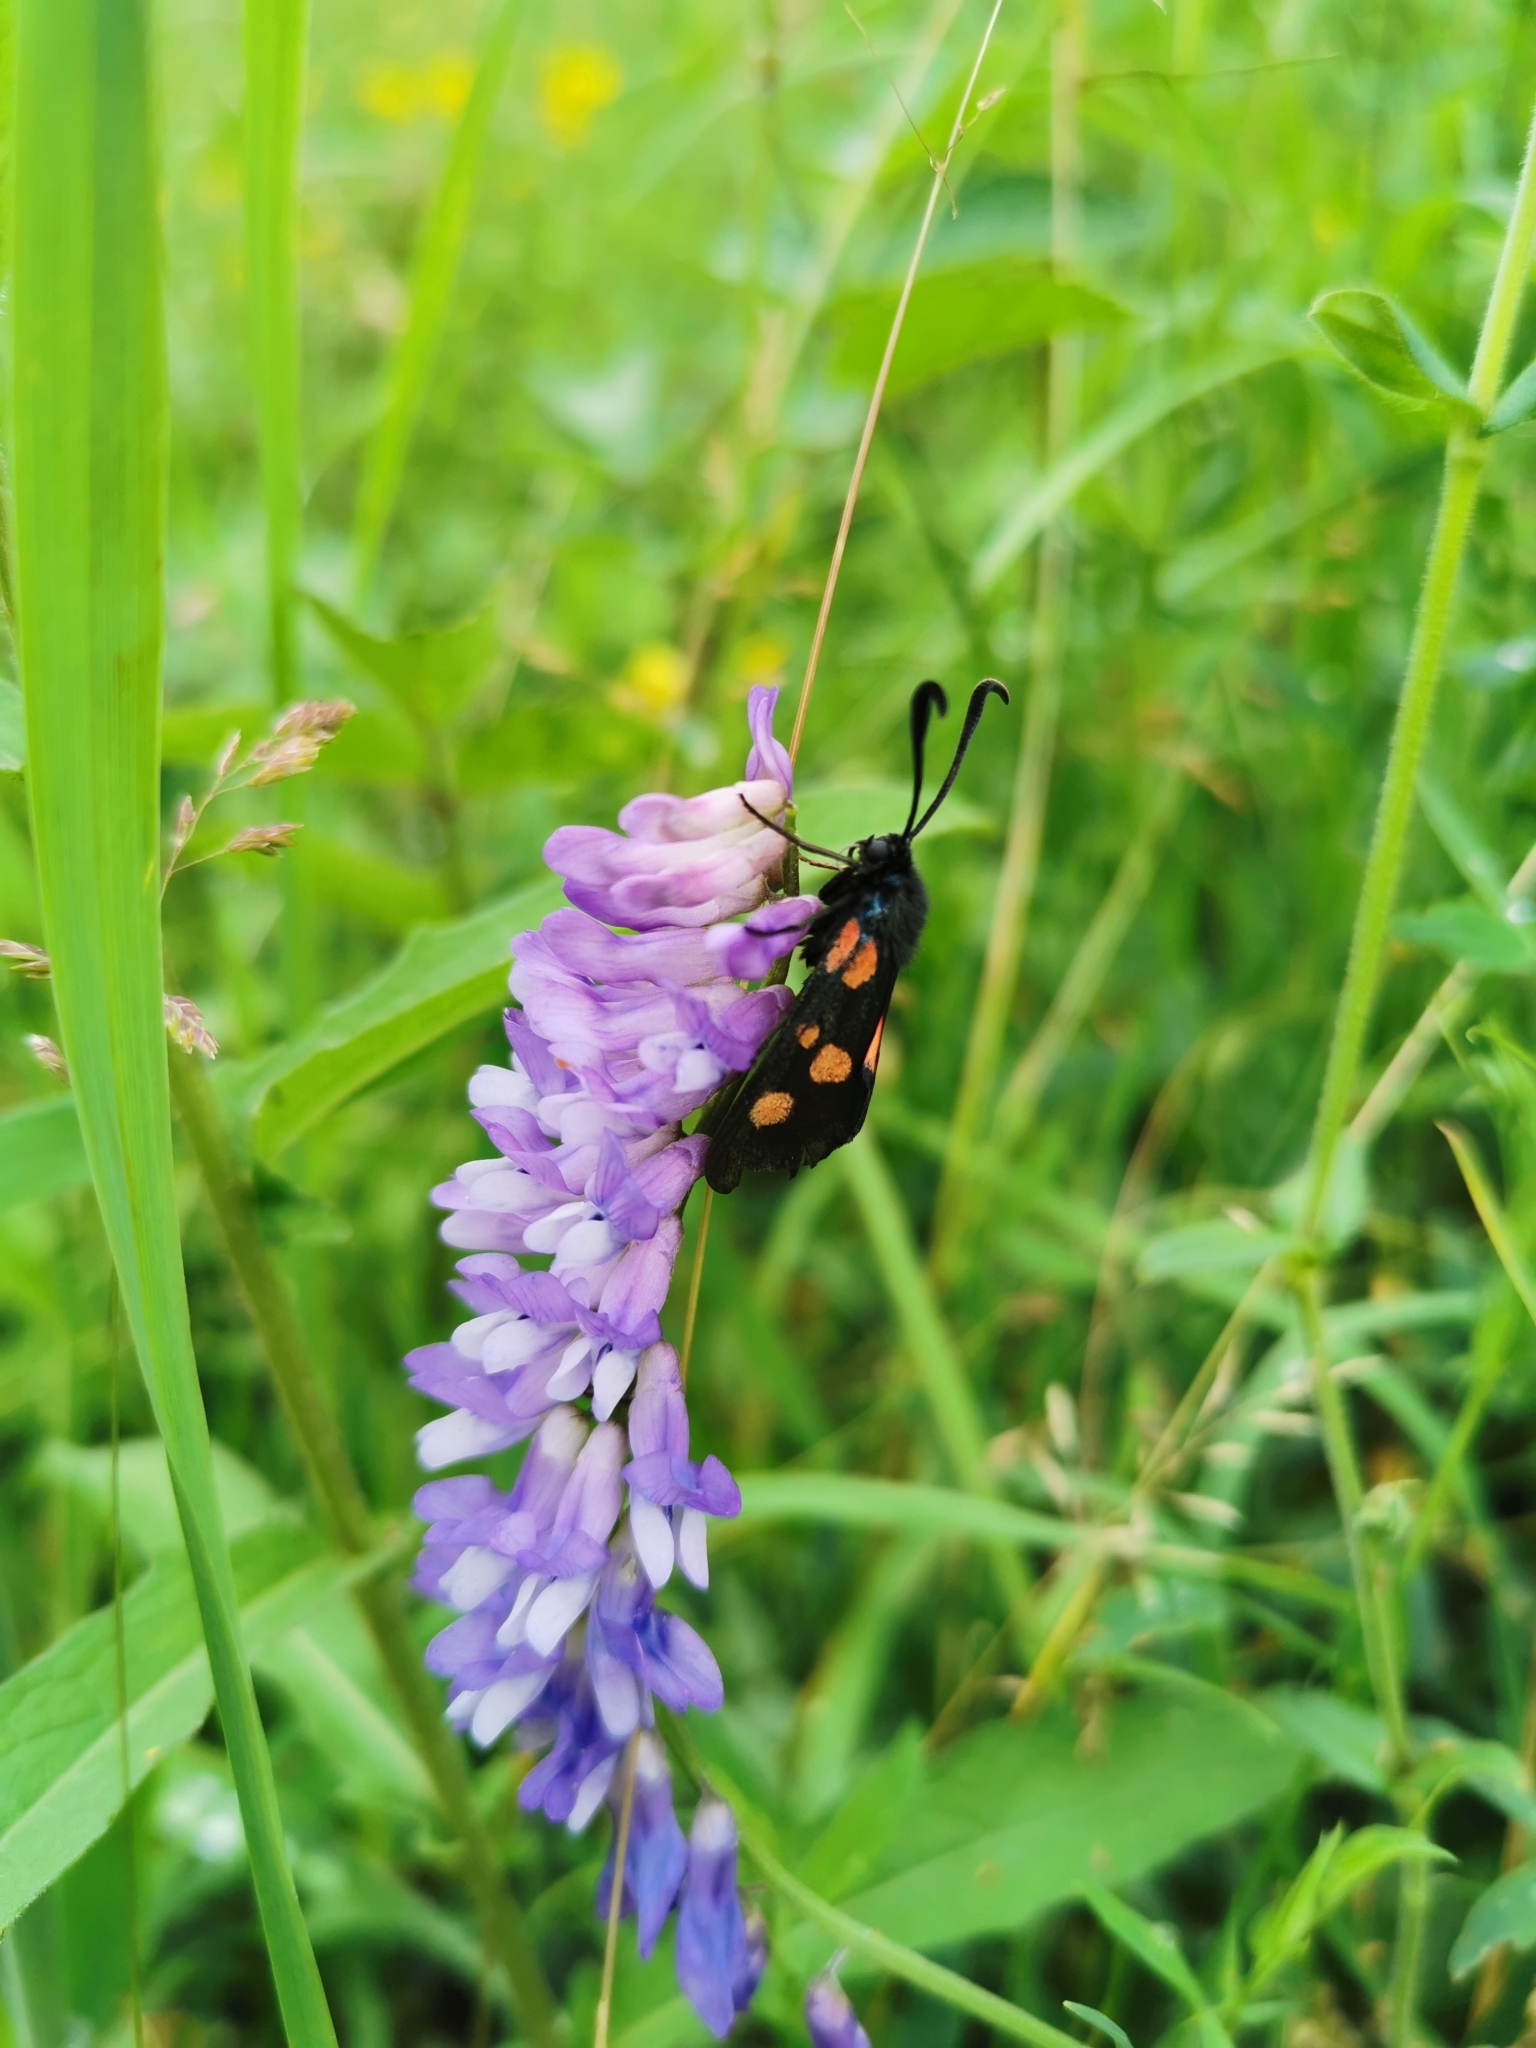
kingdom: Plantae
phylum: Tracheophyta
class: Magnoliopsida
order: Fabales
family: Fabaceae
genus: Vicia
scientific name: Vicia cracca
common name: Bird vetch
